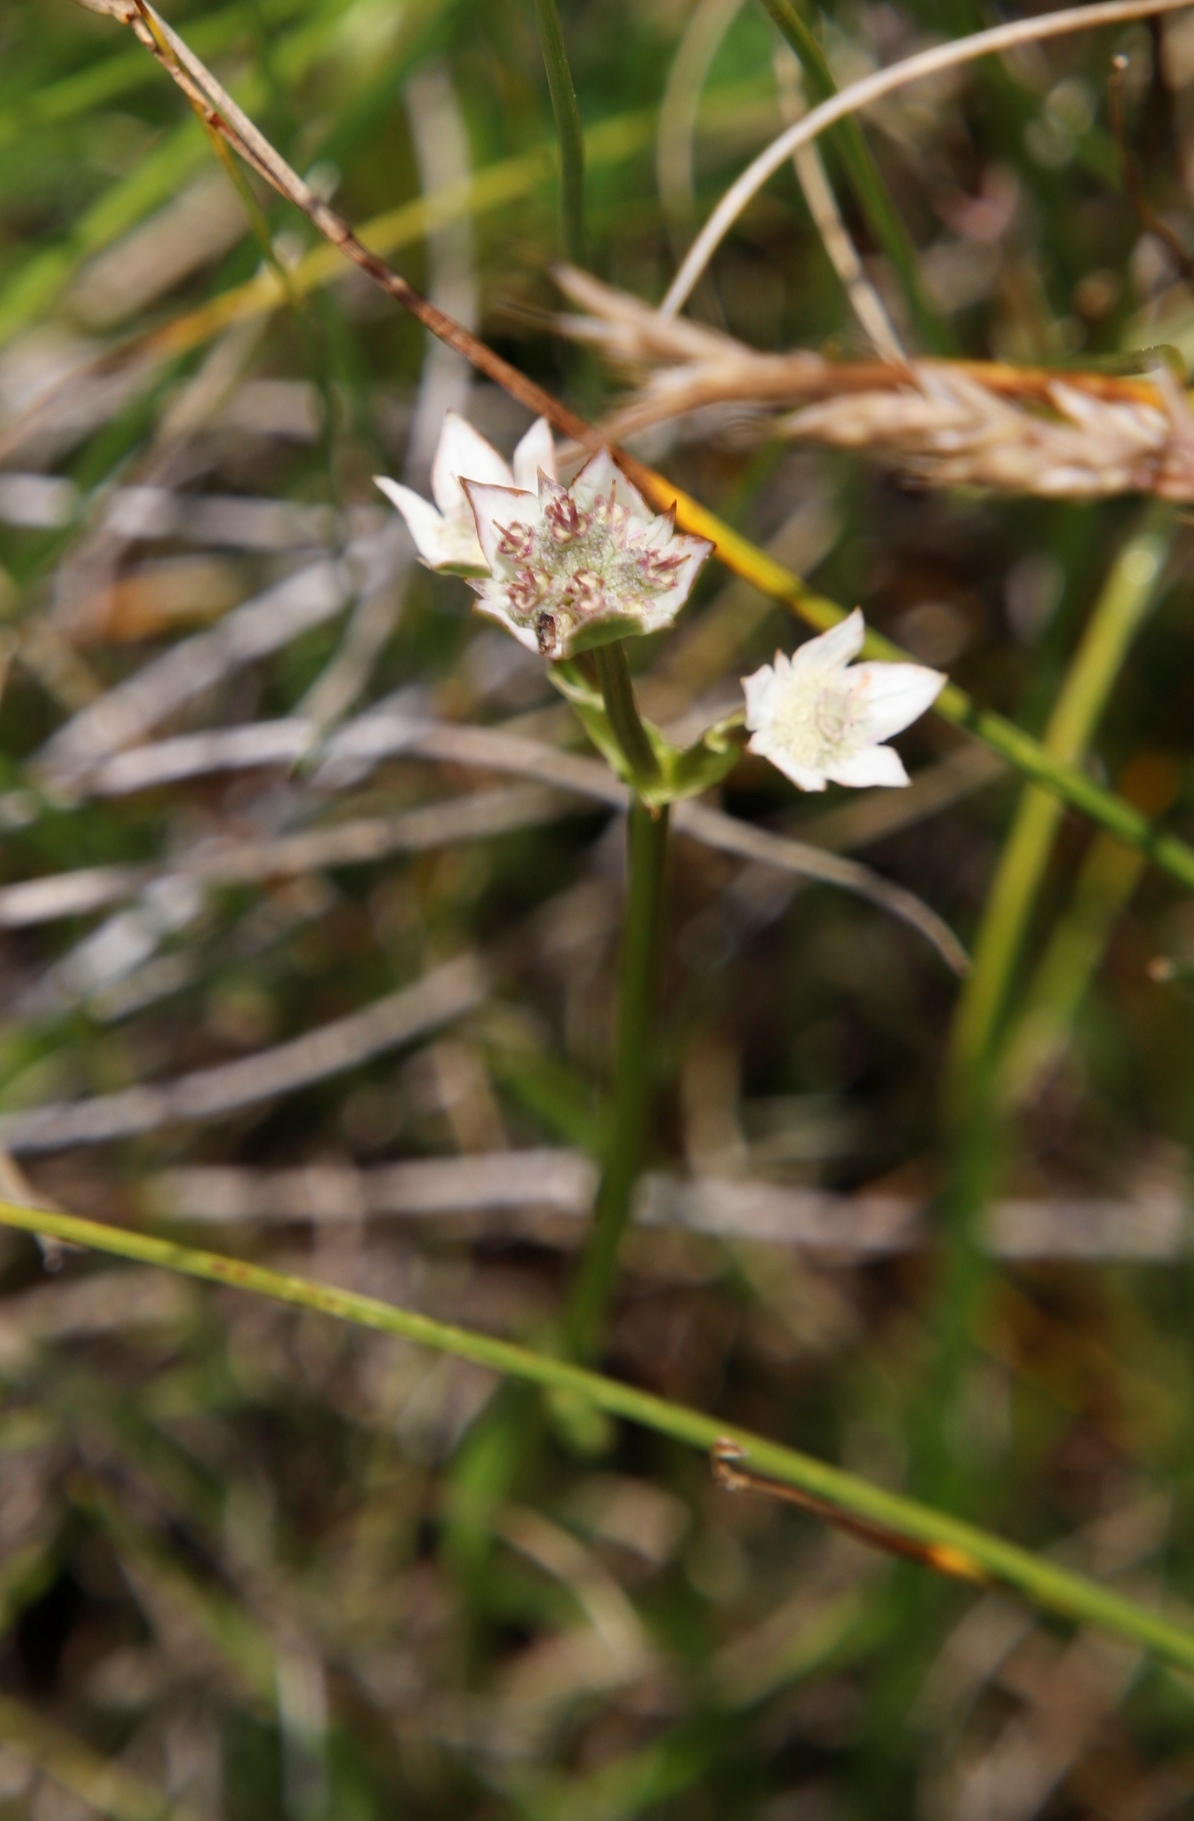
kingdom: Plantae
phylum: Tracheophyta
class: Magnoliopsida
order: Apiales
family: Apiaceae
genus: Alepidea
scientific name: Alepidea pusilla
